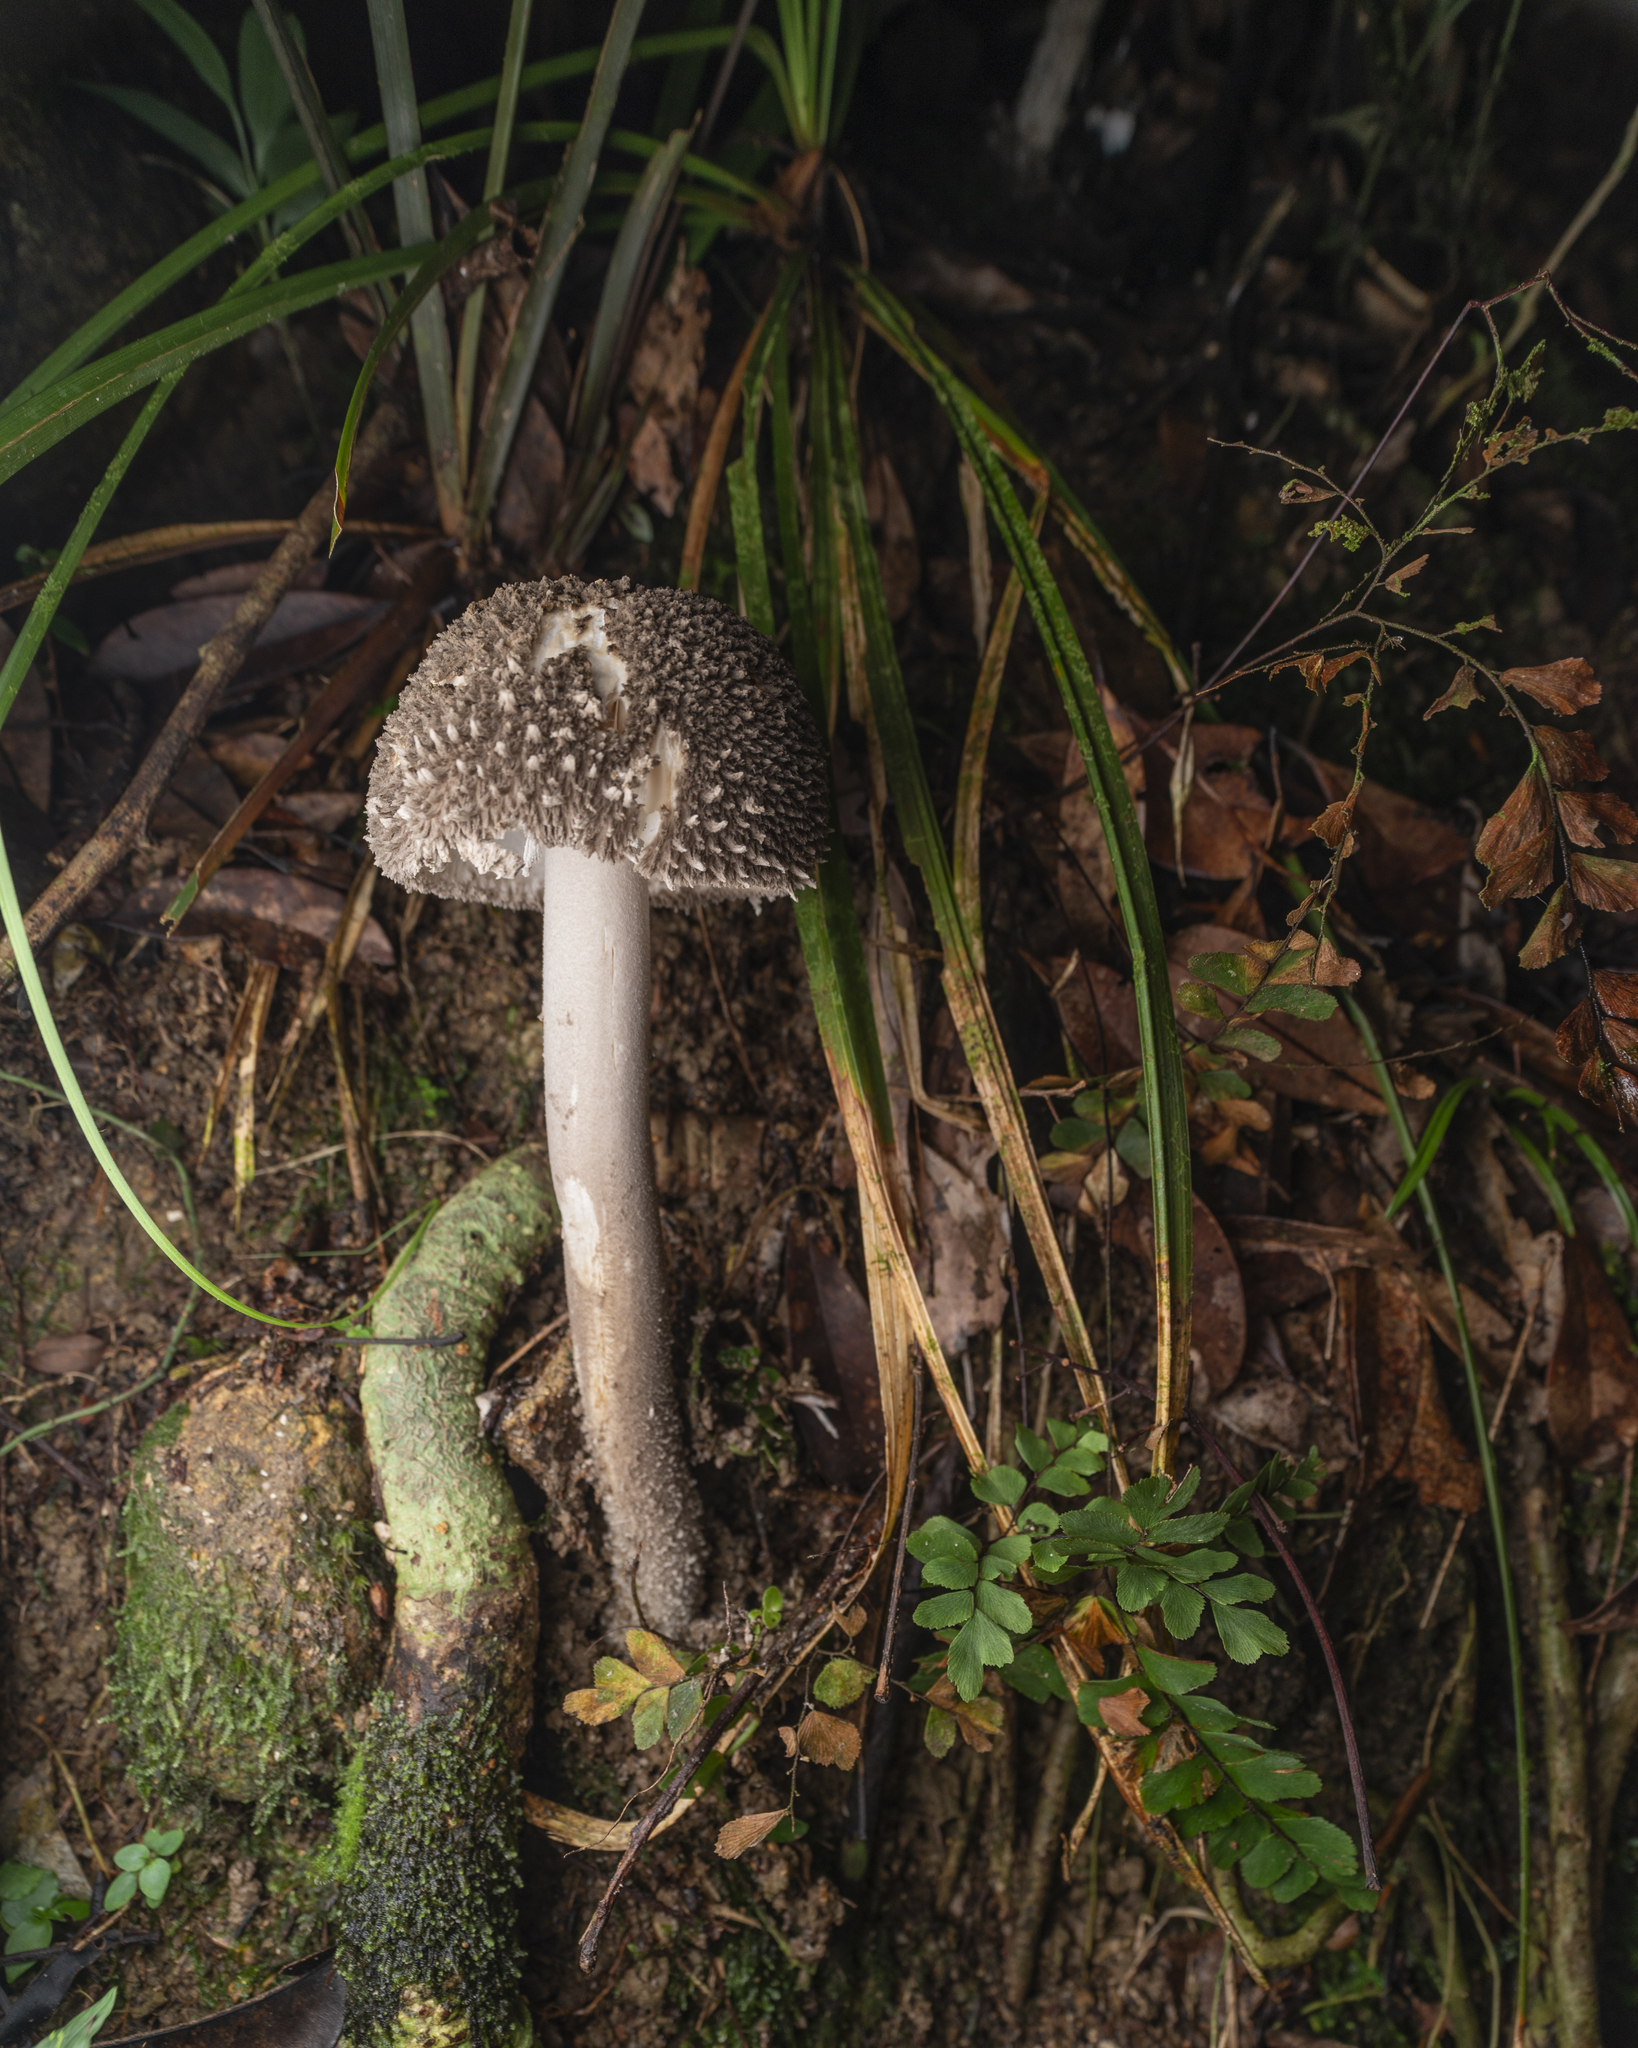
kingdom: Fungi
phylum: Basidiomycota
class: Agaricomycetes
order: Agaricales
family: Amanitaceae
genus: Amanita
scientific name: Amanita sinensis
